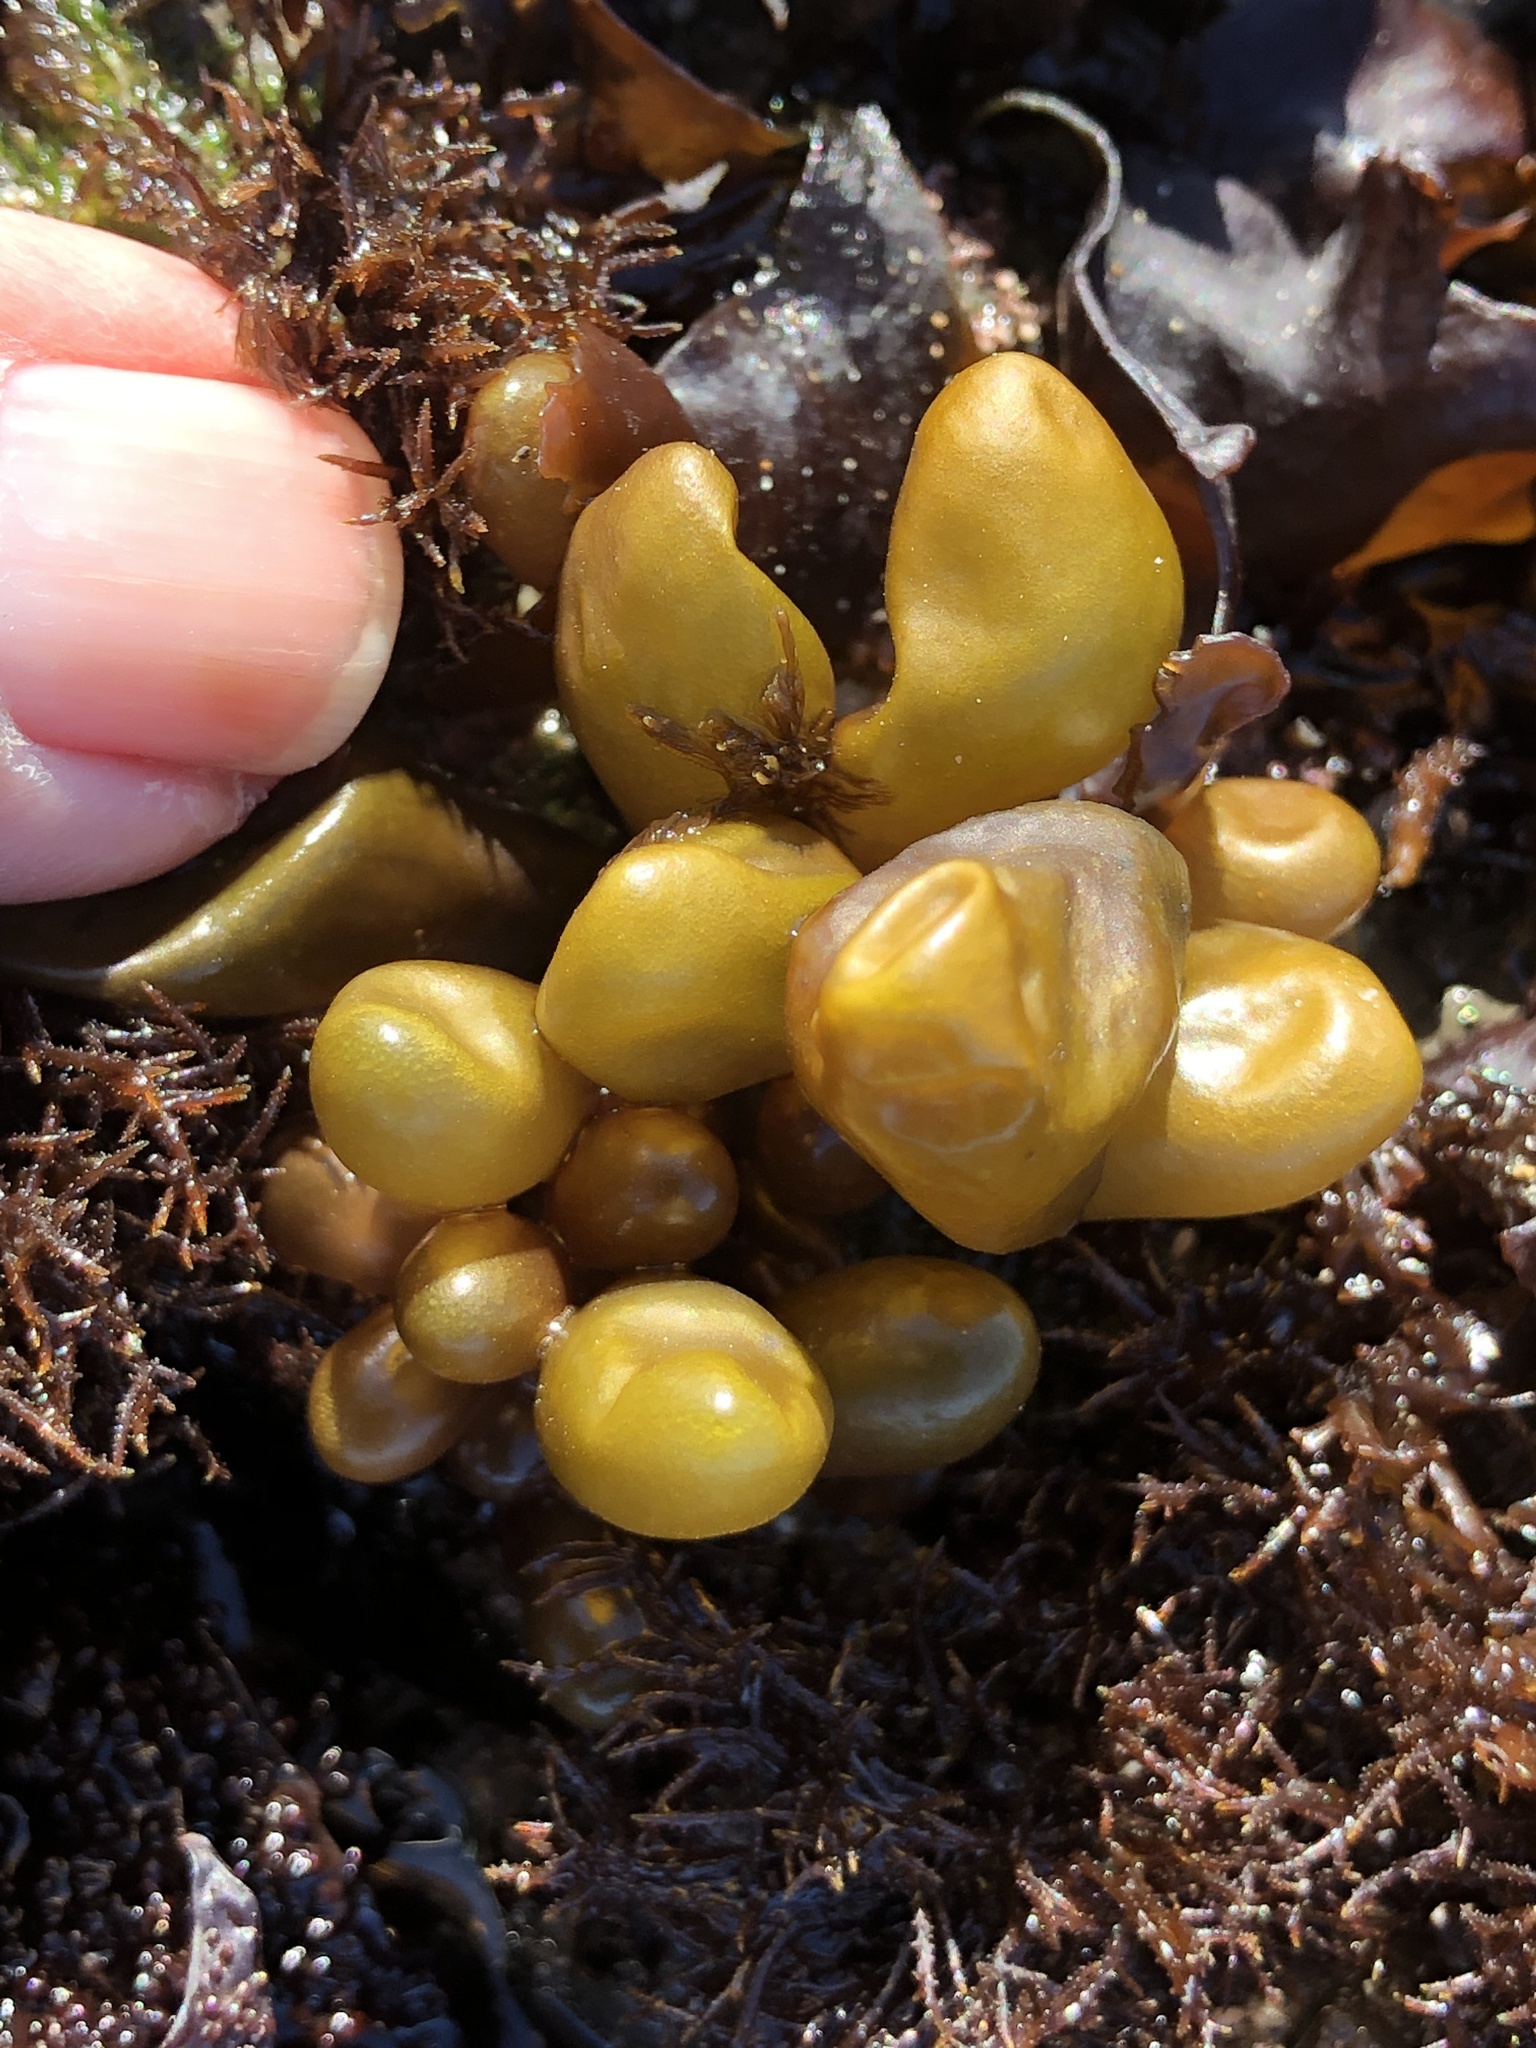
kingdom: Plantae
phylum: Rhodophyta
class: Florideophyceae
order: Palmariales
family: Palmariaceae
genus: Halosaccion
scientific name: Halosaccion glandiforme
